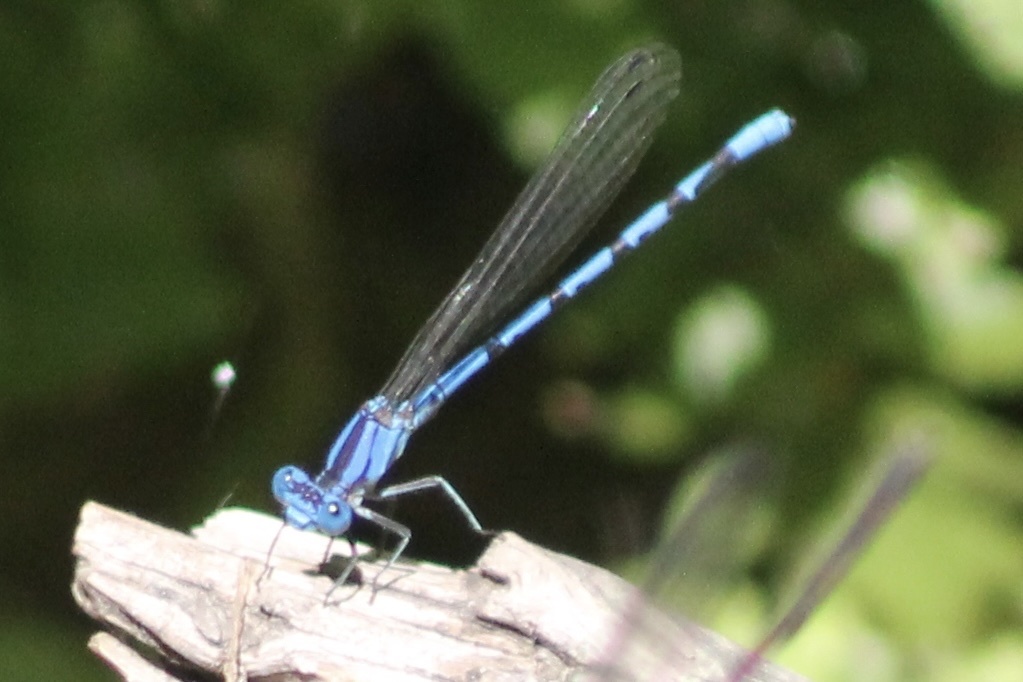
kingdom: Animalia
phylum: Arthropoda
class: Insecta
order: Odonata
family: Coenagrionidae
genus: Argia
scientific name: Argia funebris
